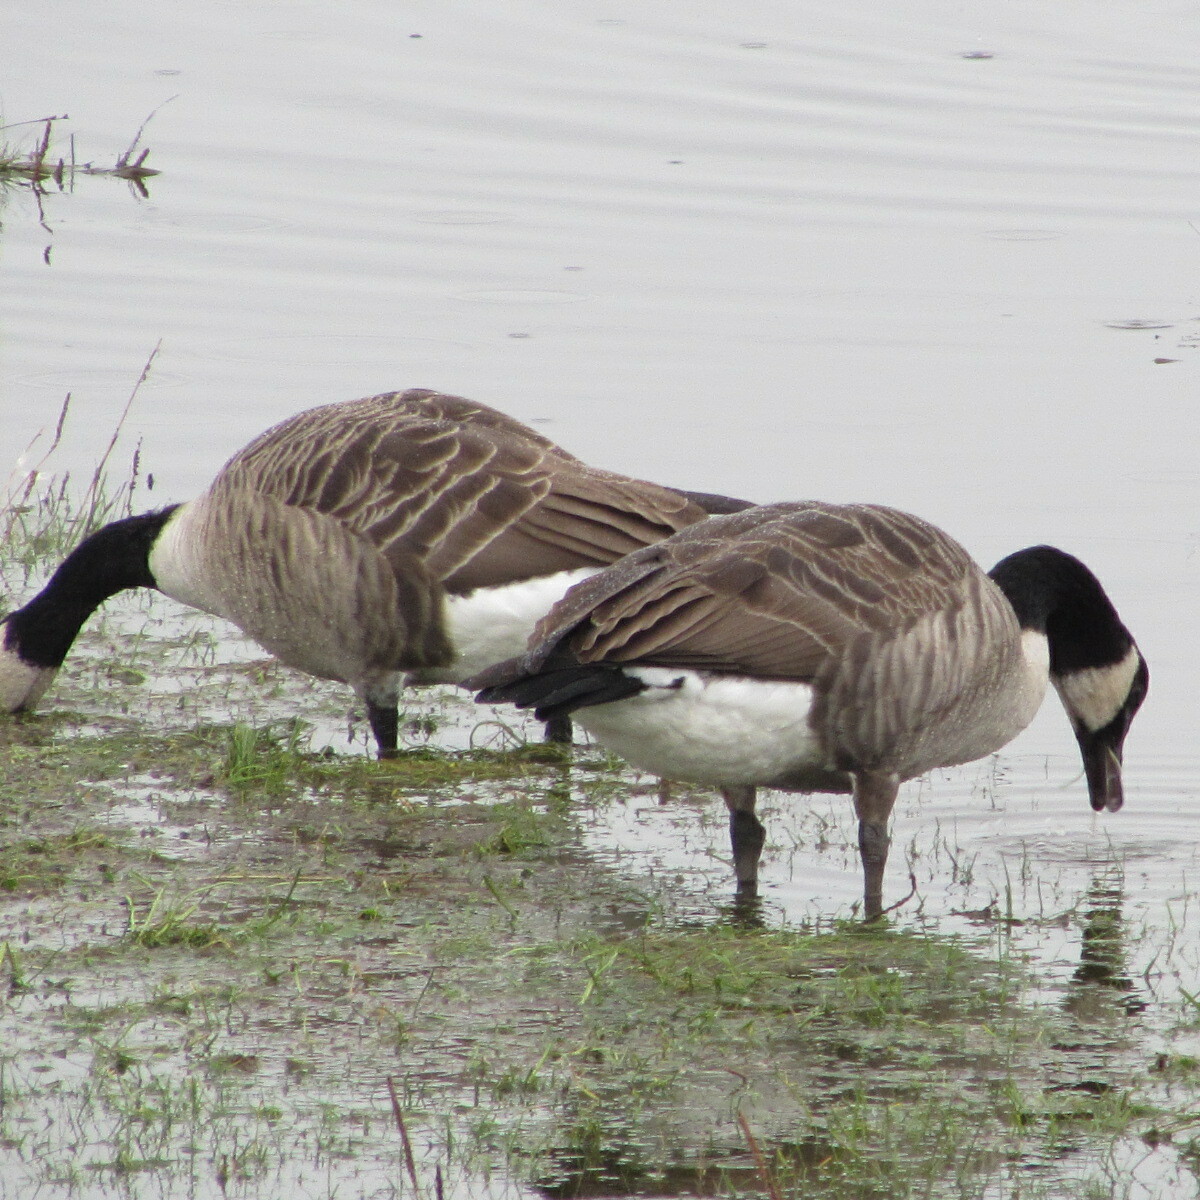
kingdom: Animalia
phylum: Chordata
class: Aves
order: Anseriformes
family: Anatidae
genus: Branta
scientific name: Branta canadensis
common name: Canada goose
